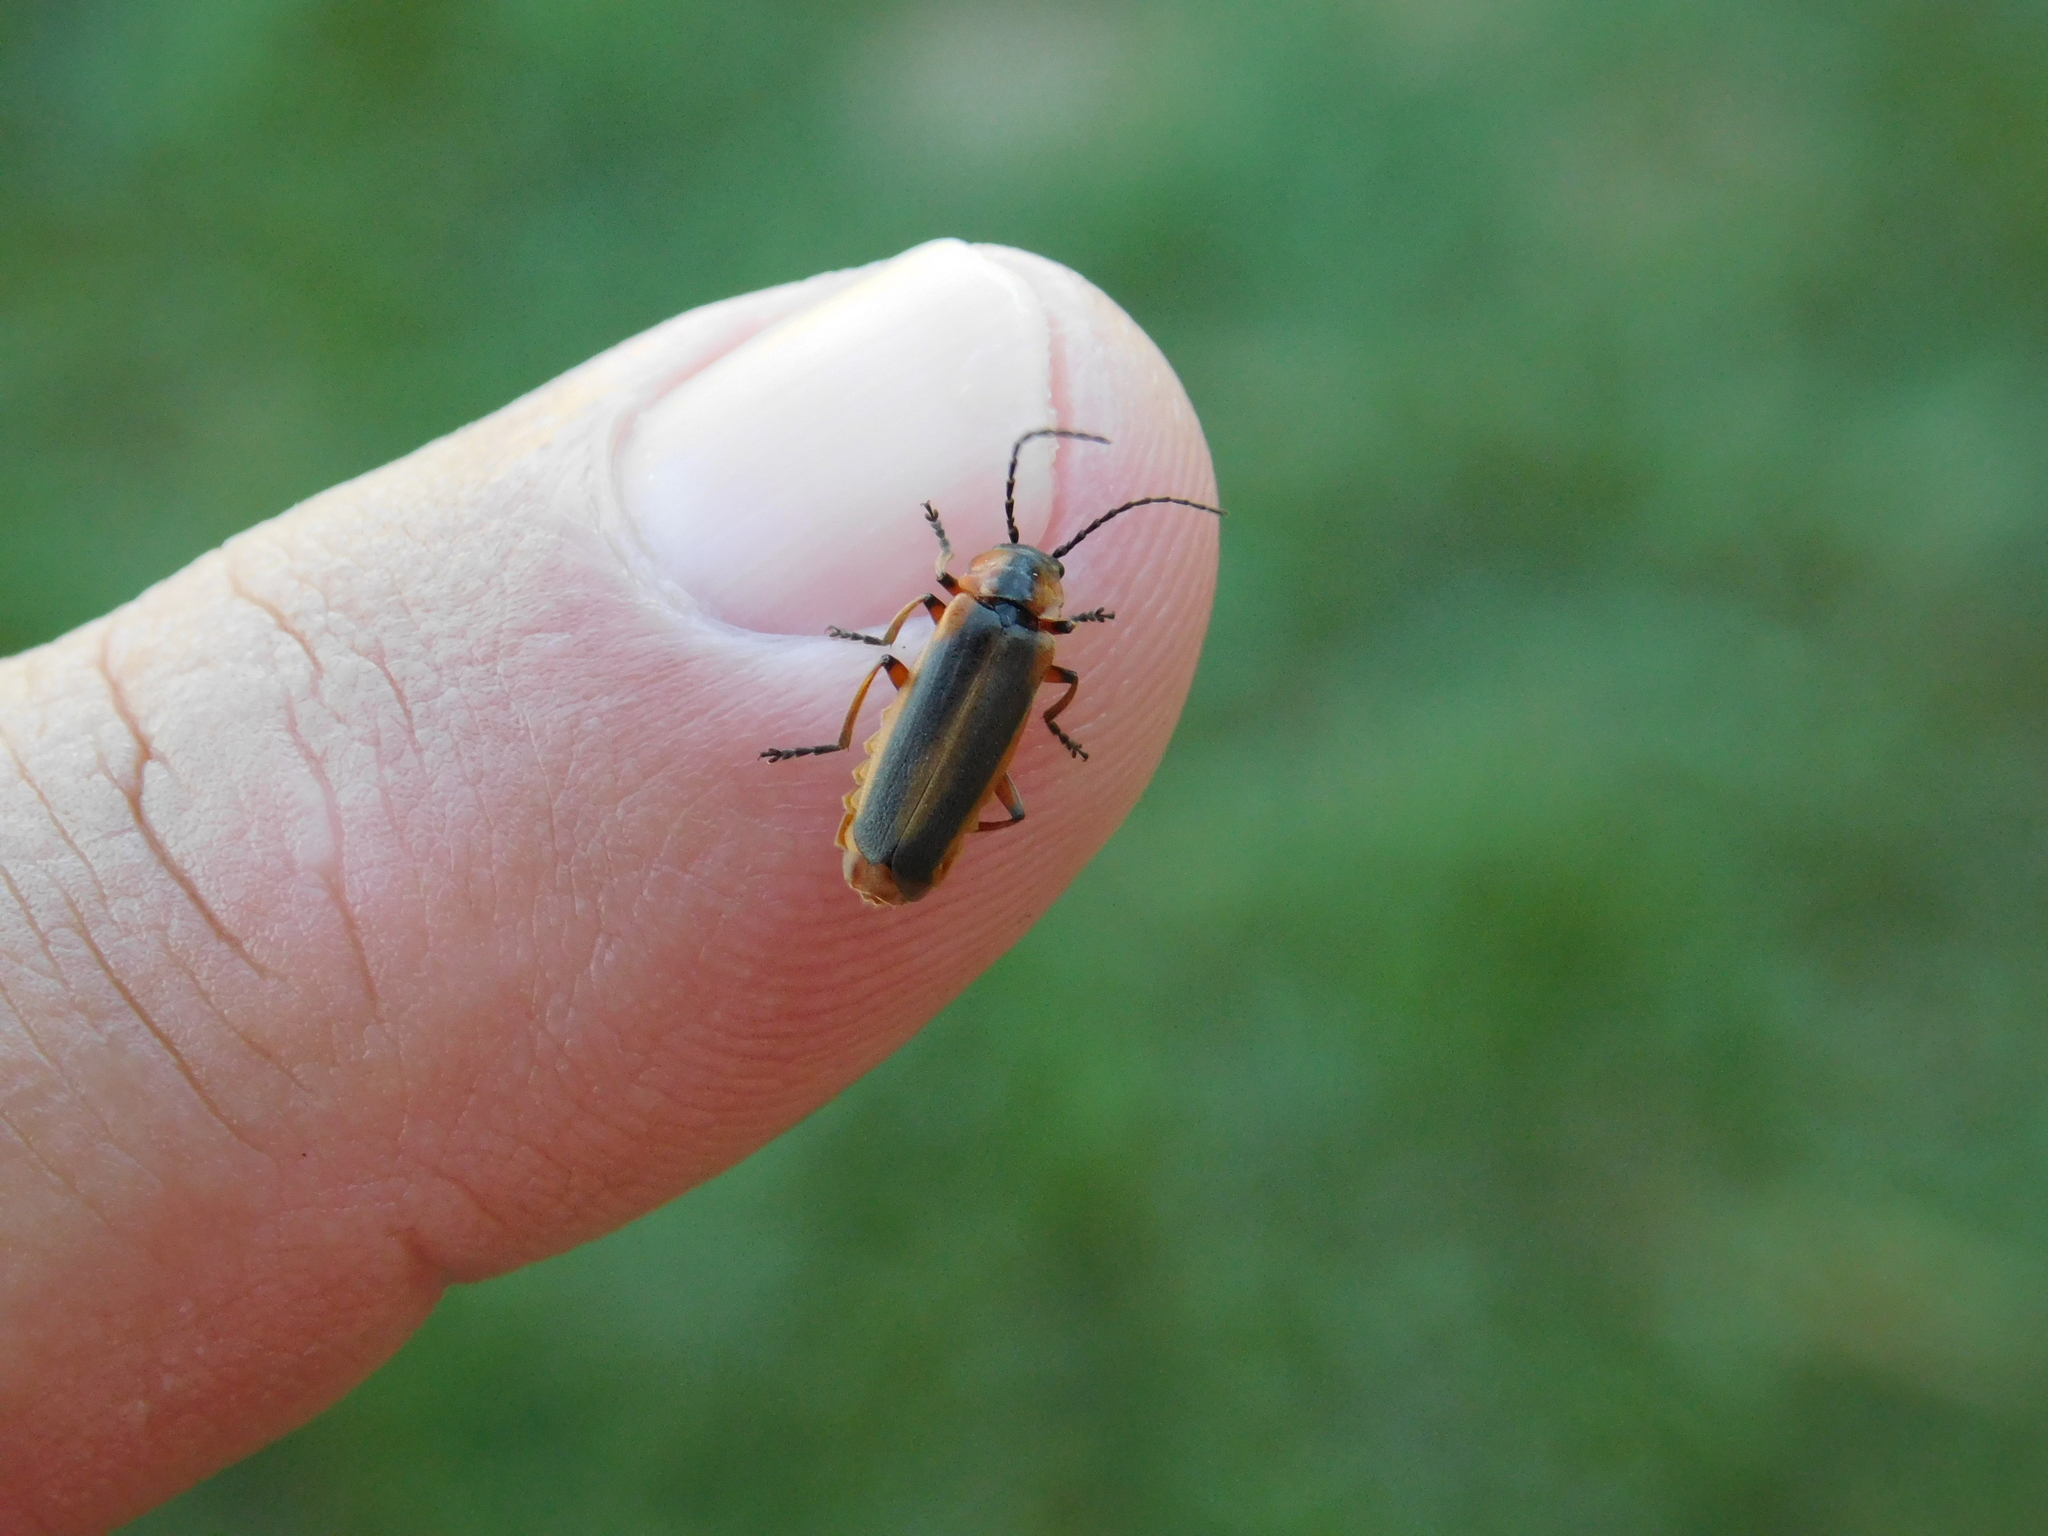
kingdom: Animalia
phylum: Arthropoda
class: Insecta
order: Coleoptera
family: Cantharidae
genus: Discodon
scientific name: Discodon
